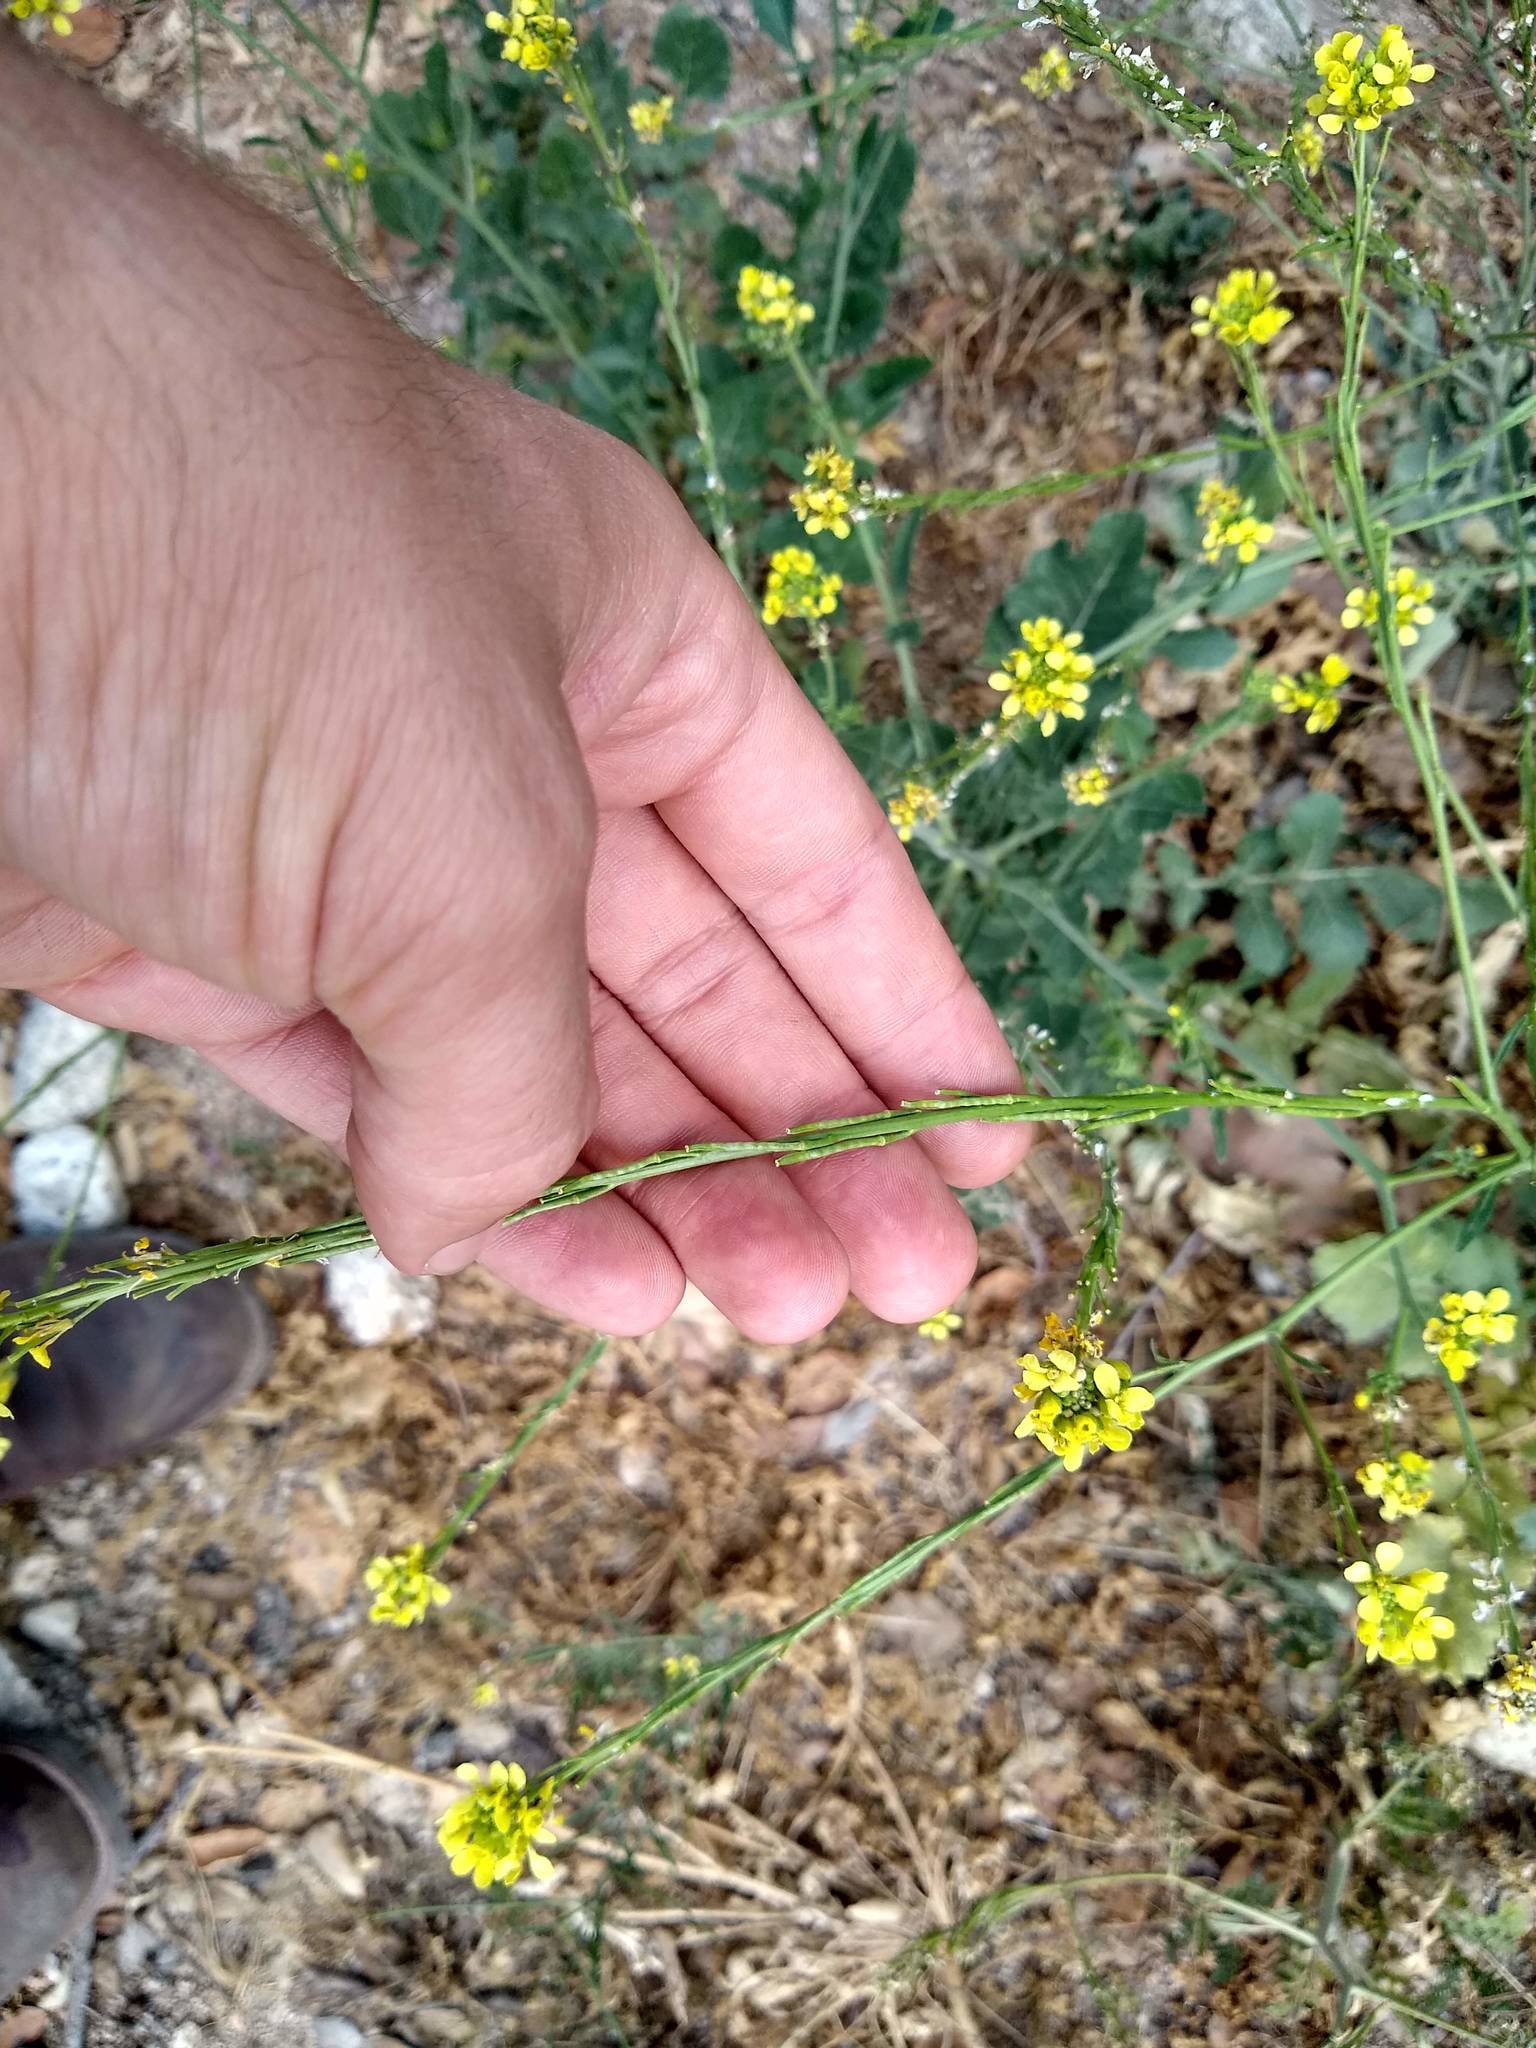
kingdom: Plantae
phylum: Tracheophyta
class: Magnoliopsida
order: Brassicales
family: Brassicaceae
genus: Hirschfeldia
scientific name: Hirschfeldia incana
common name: Hoary mustard
